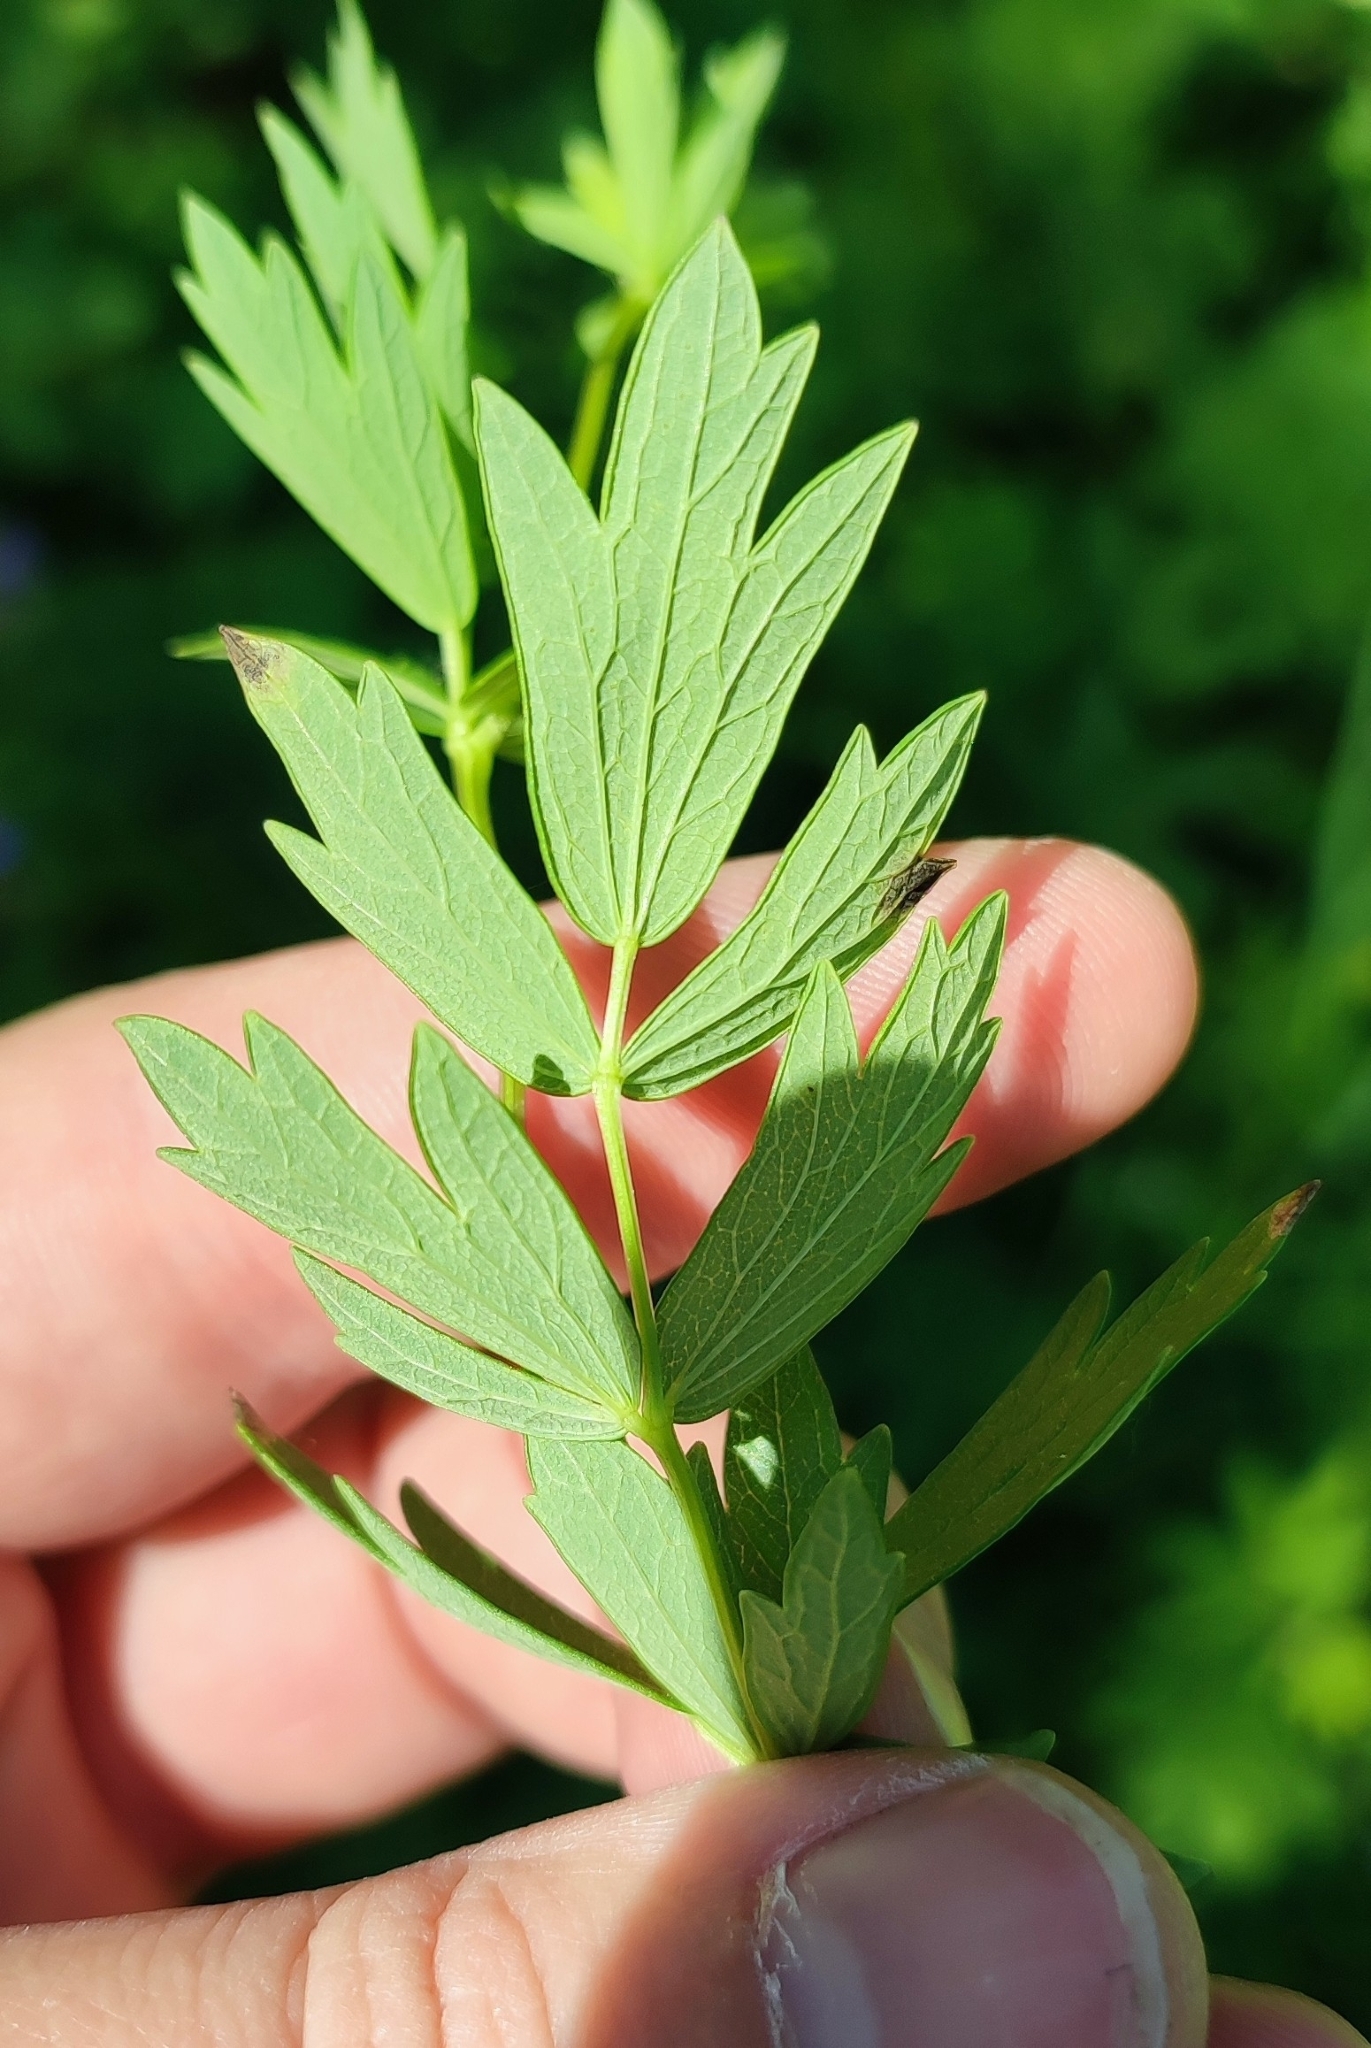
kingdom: Plantae
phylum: Tracheophyta
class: Magnoliopsida
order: Ranunculales
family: Ranunculaceae
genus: Thalictrum
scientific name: Thalictrum simplex
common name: Small meadow-rue
